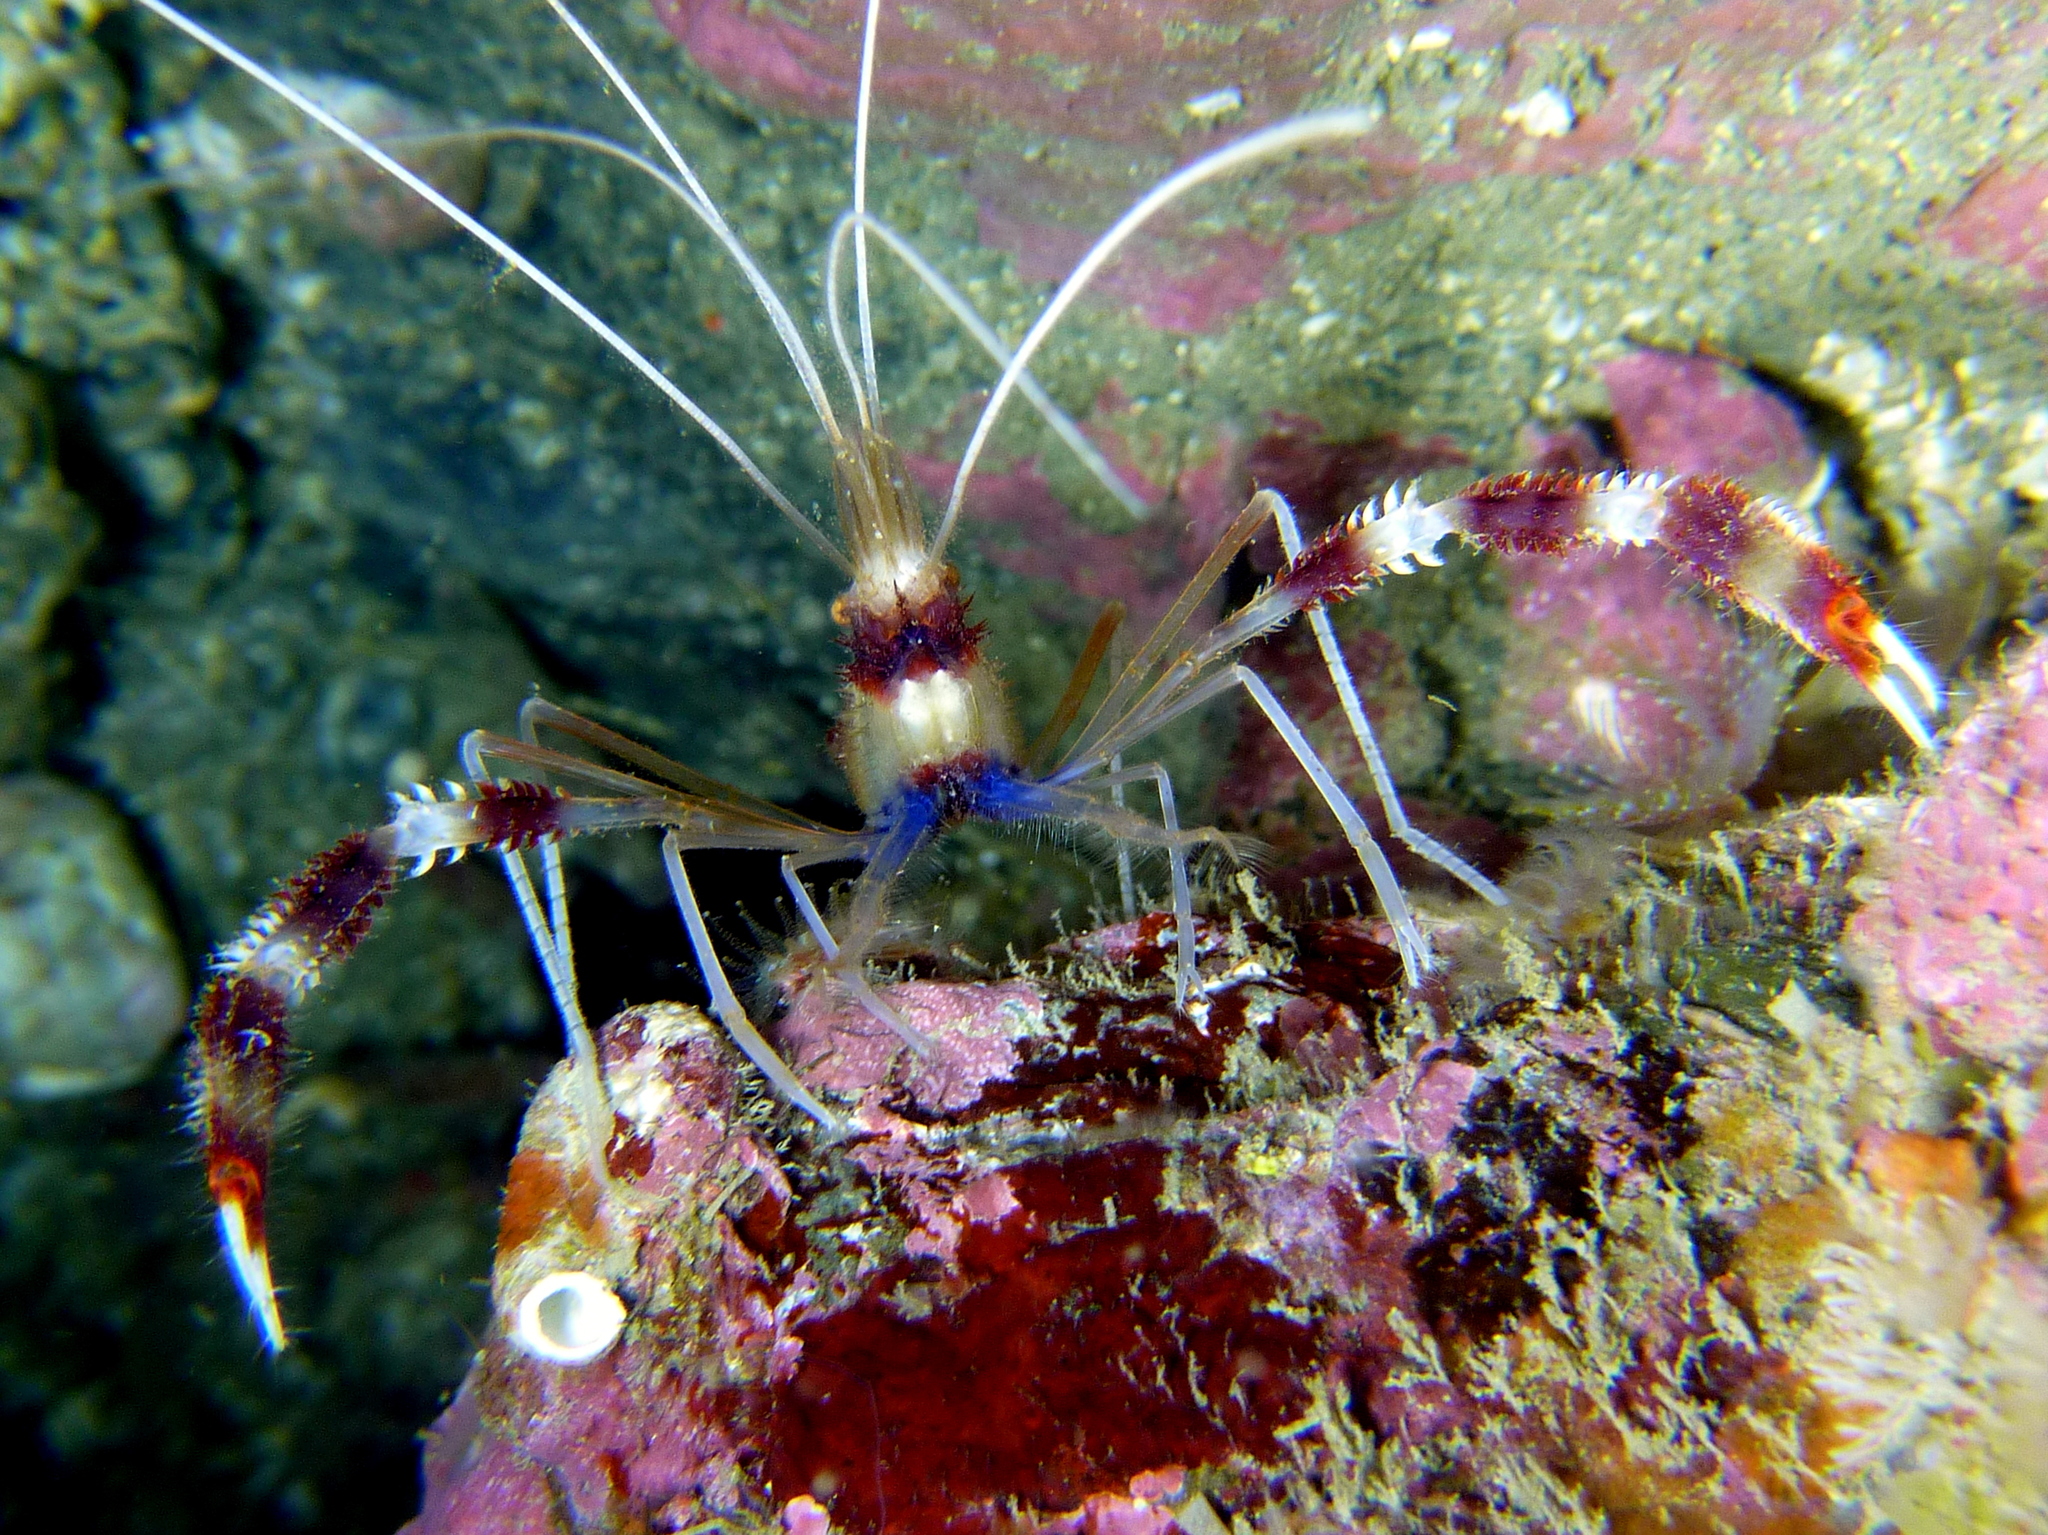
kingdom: Animalia
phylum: Arthropoda
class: Malacostraca
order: Decapoda
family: Stenopodidae
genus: Stenopus
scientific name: Stenopus hispidus
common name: Banded coral shrimp
